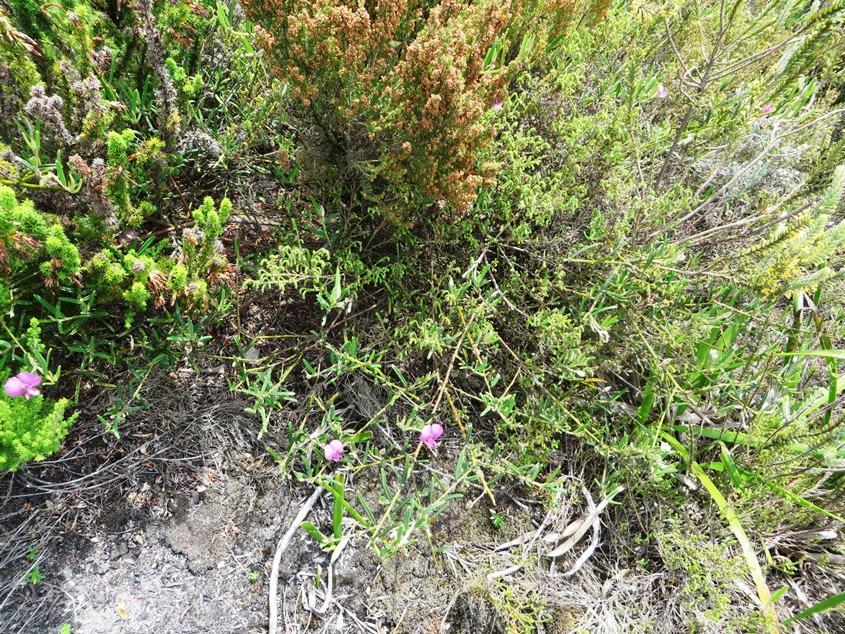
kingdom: Plantae
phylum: Tracheophyta
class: Magnoliopsida
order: Fabales
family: Fabaceae
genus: Podalyria
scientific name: Podalyria oleifolia
